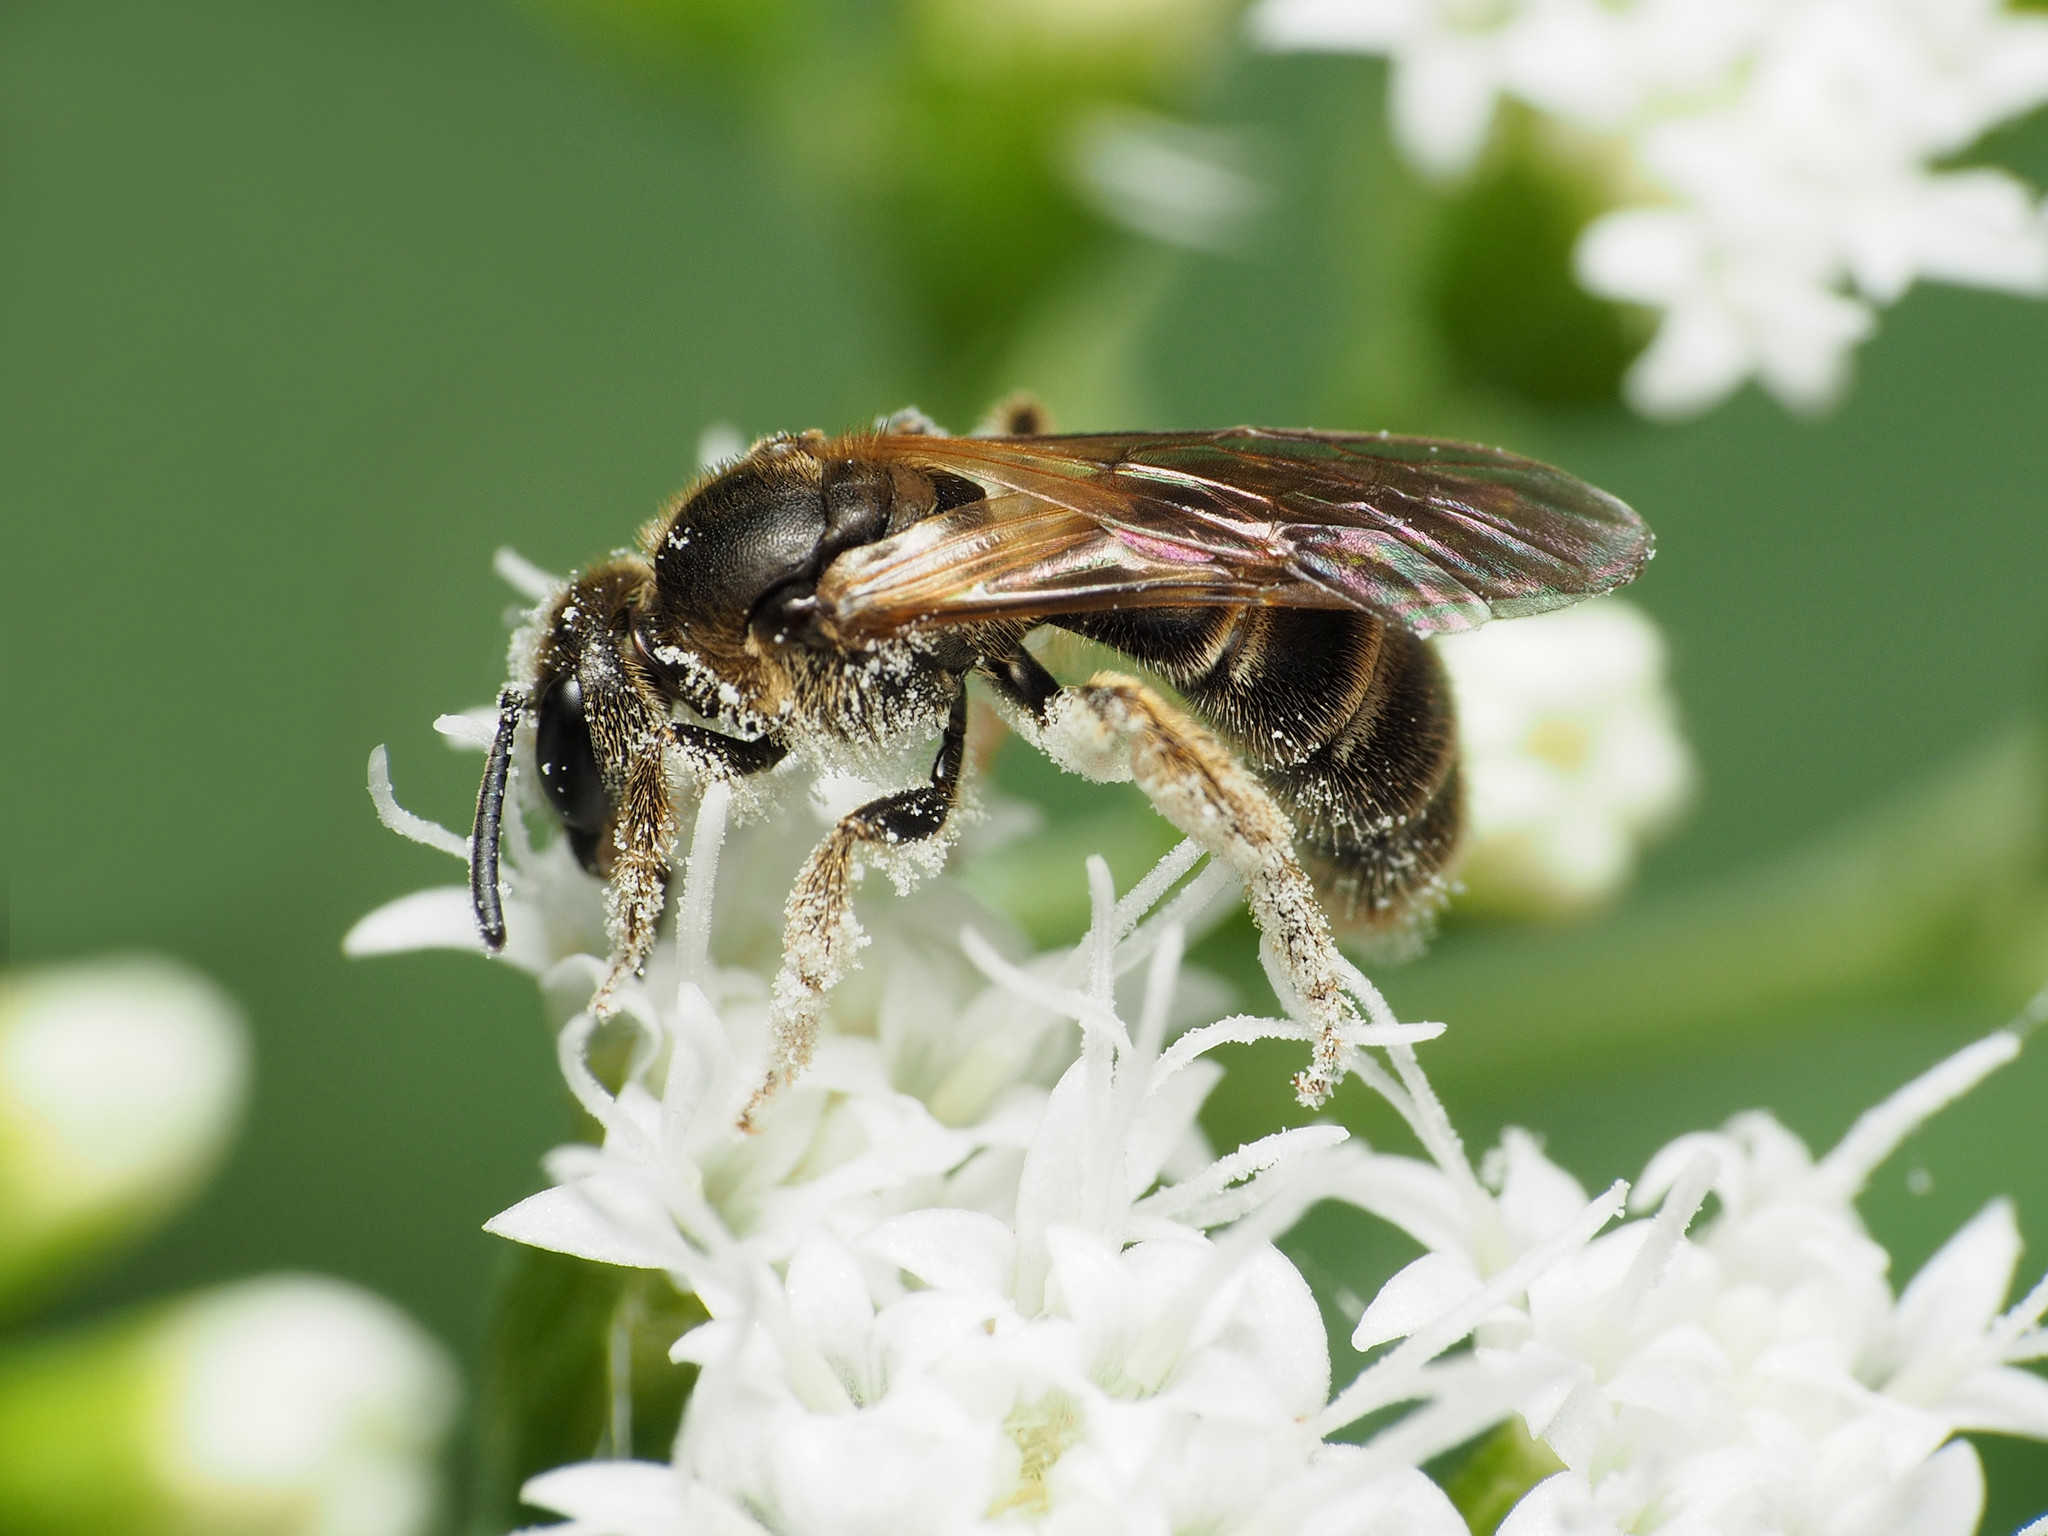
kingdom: Animalia
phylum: Arthropoda
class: Insecta
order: Hymenoptera
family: Halictidae
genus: Lasioglossum
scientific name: Lasioglossum quebecense
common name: Quebec sweat bee
